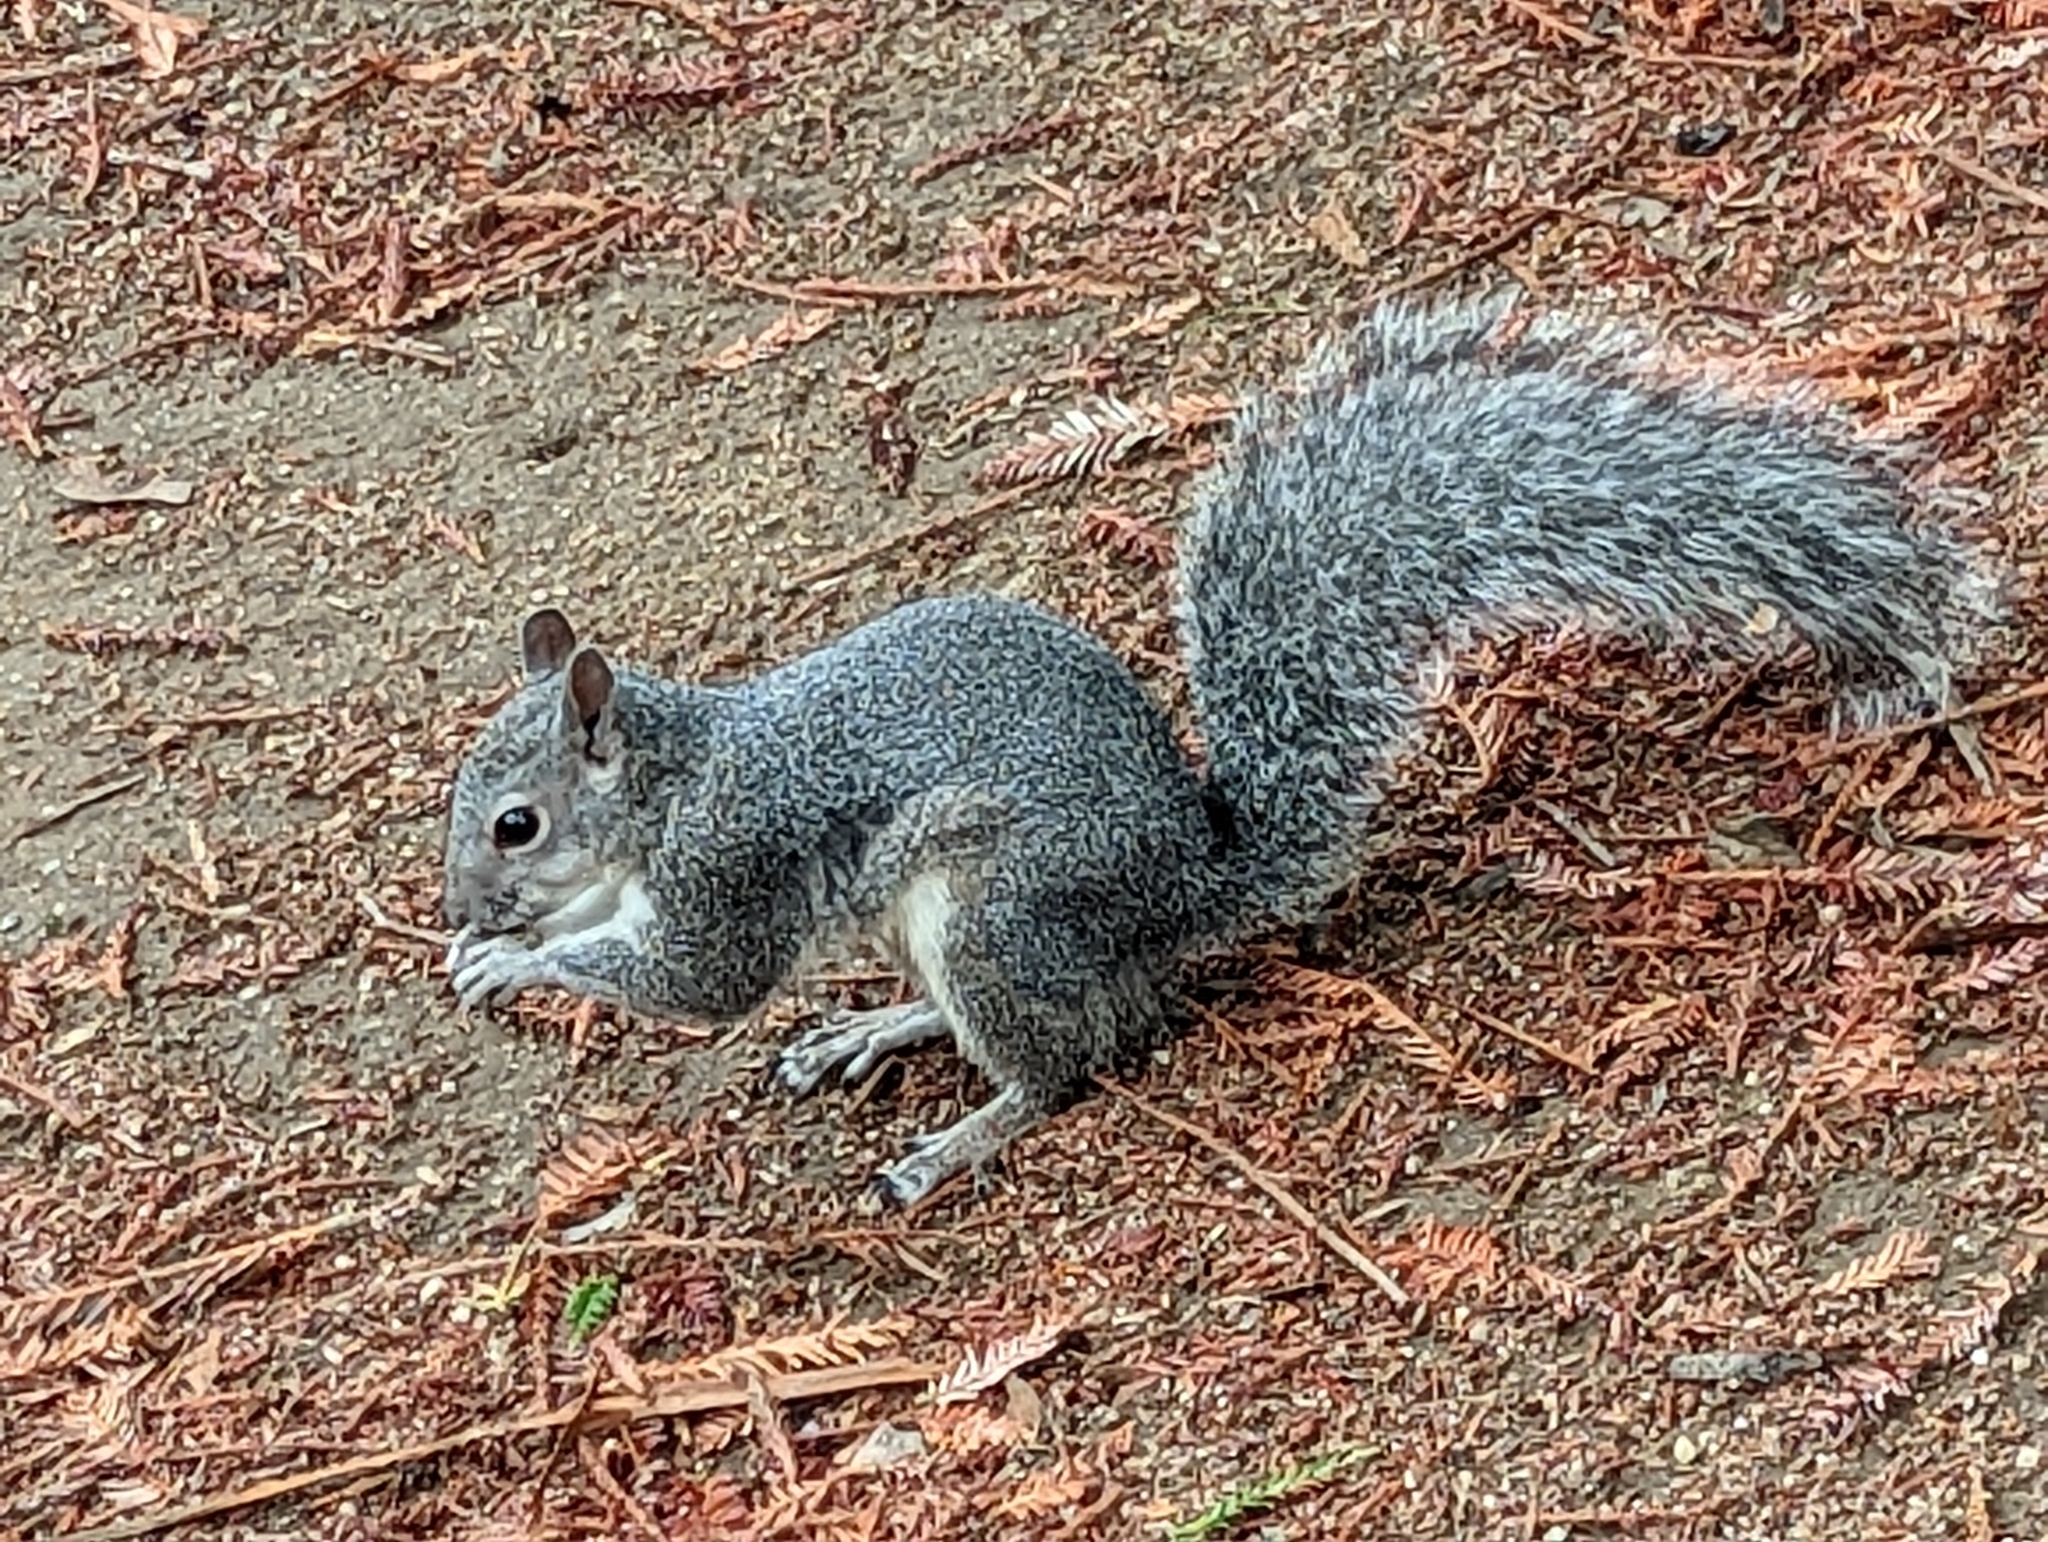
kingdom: Animalia
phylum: Chordata
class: Mammalia
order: Rodentia
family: Sciuridae
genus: Sciurus
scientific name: Sciurus griseus
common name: Western gray squirrel
